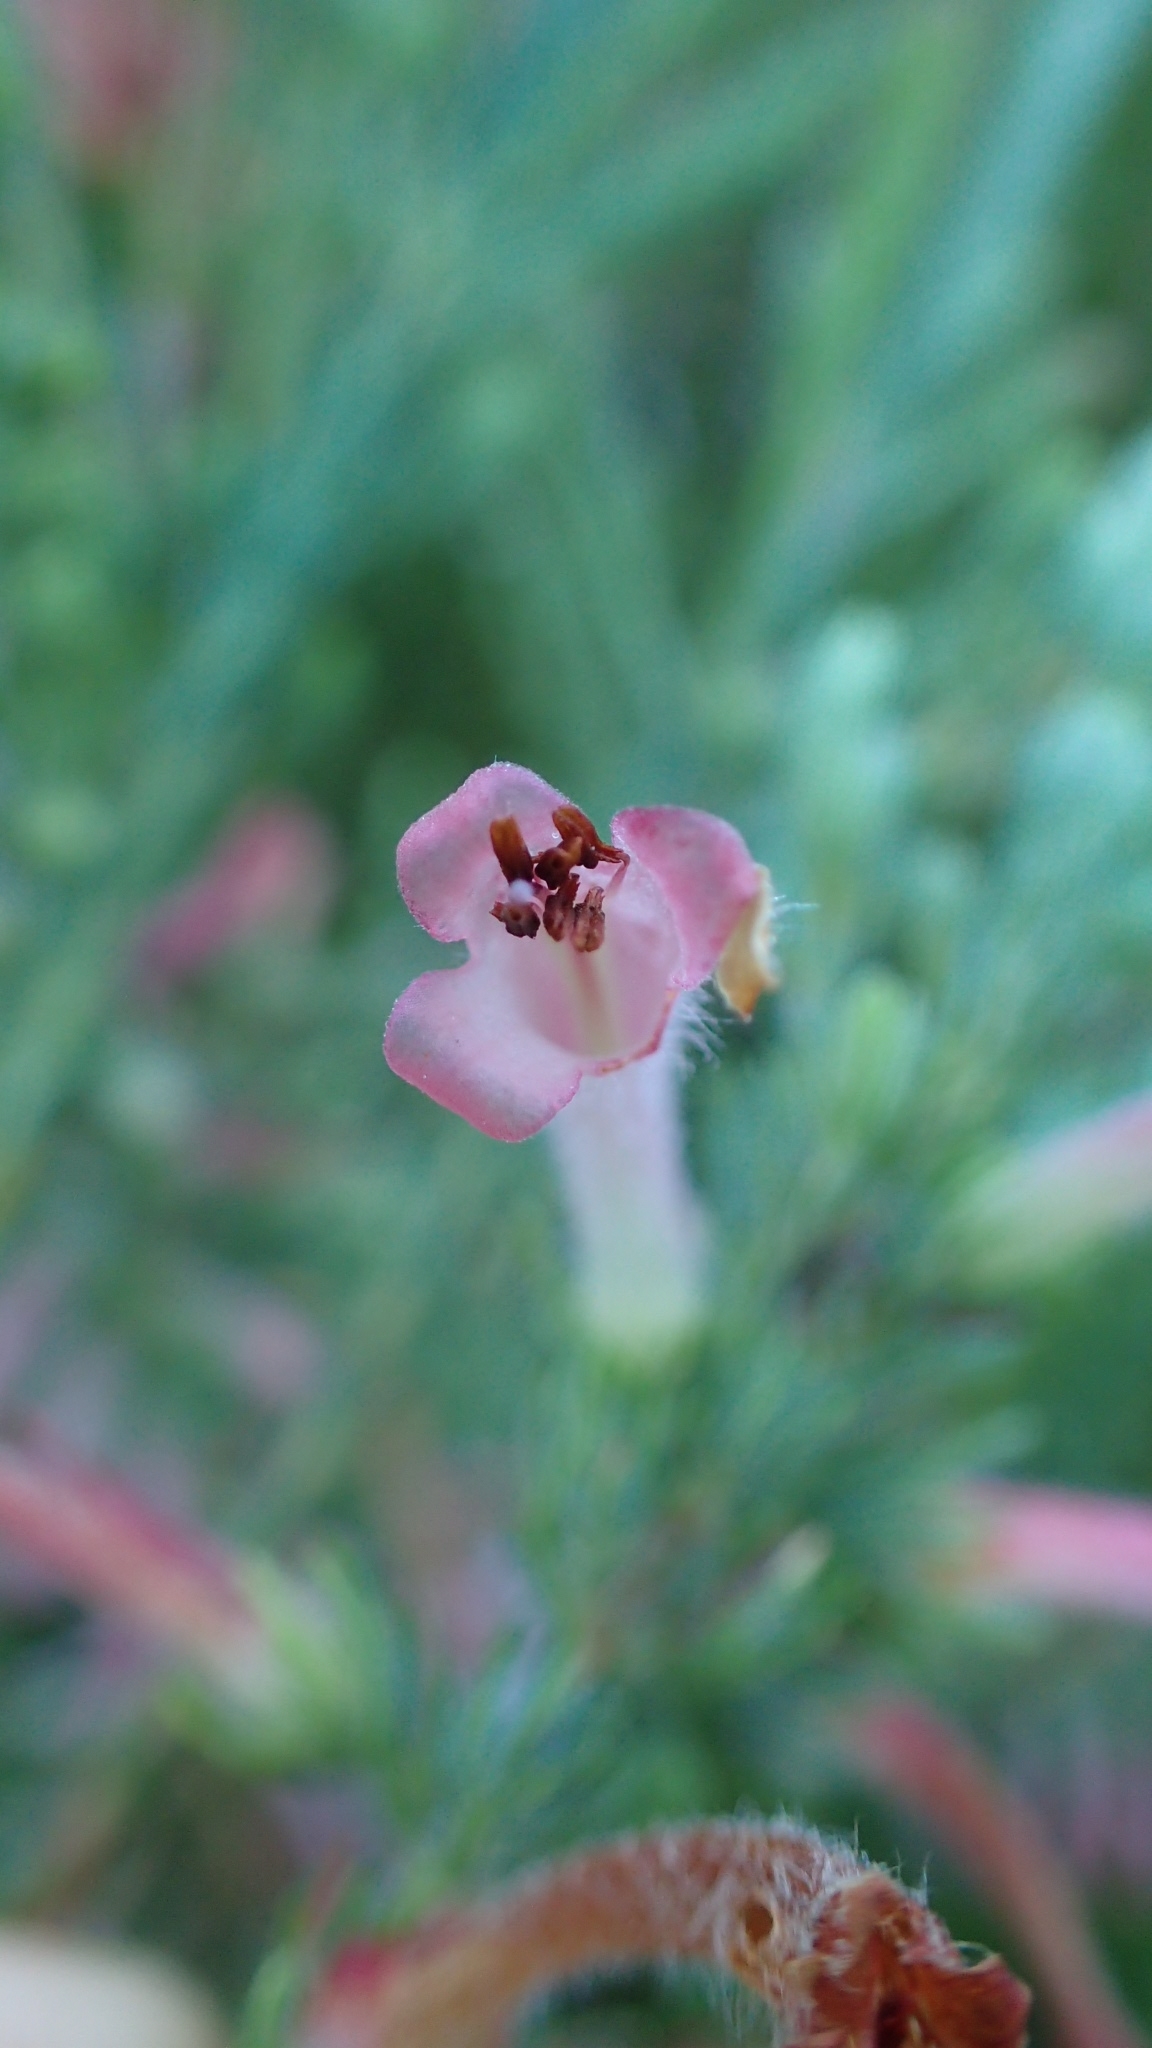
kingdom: Plantae
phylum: Tracheophyta
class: Magnoliopsida
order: Ericales
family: Ericaceae
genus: Erica
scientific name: Erica curviflora
